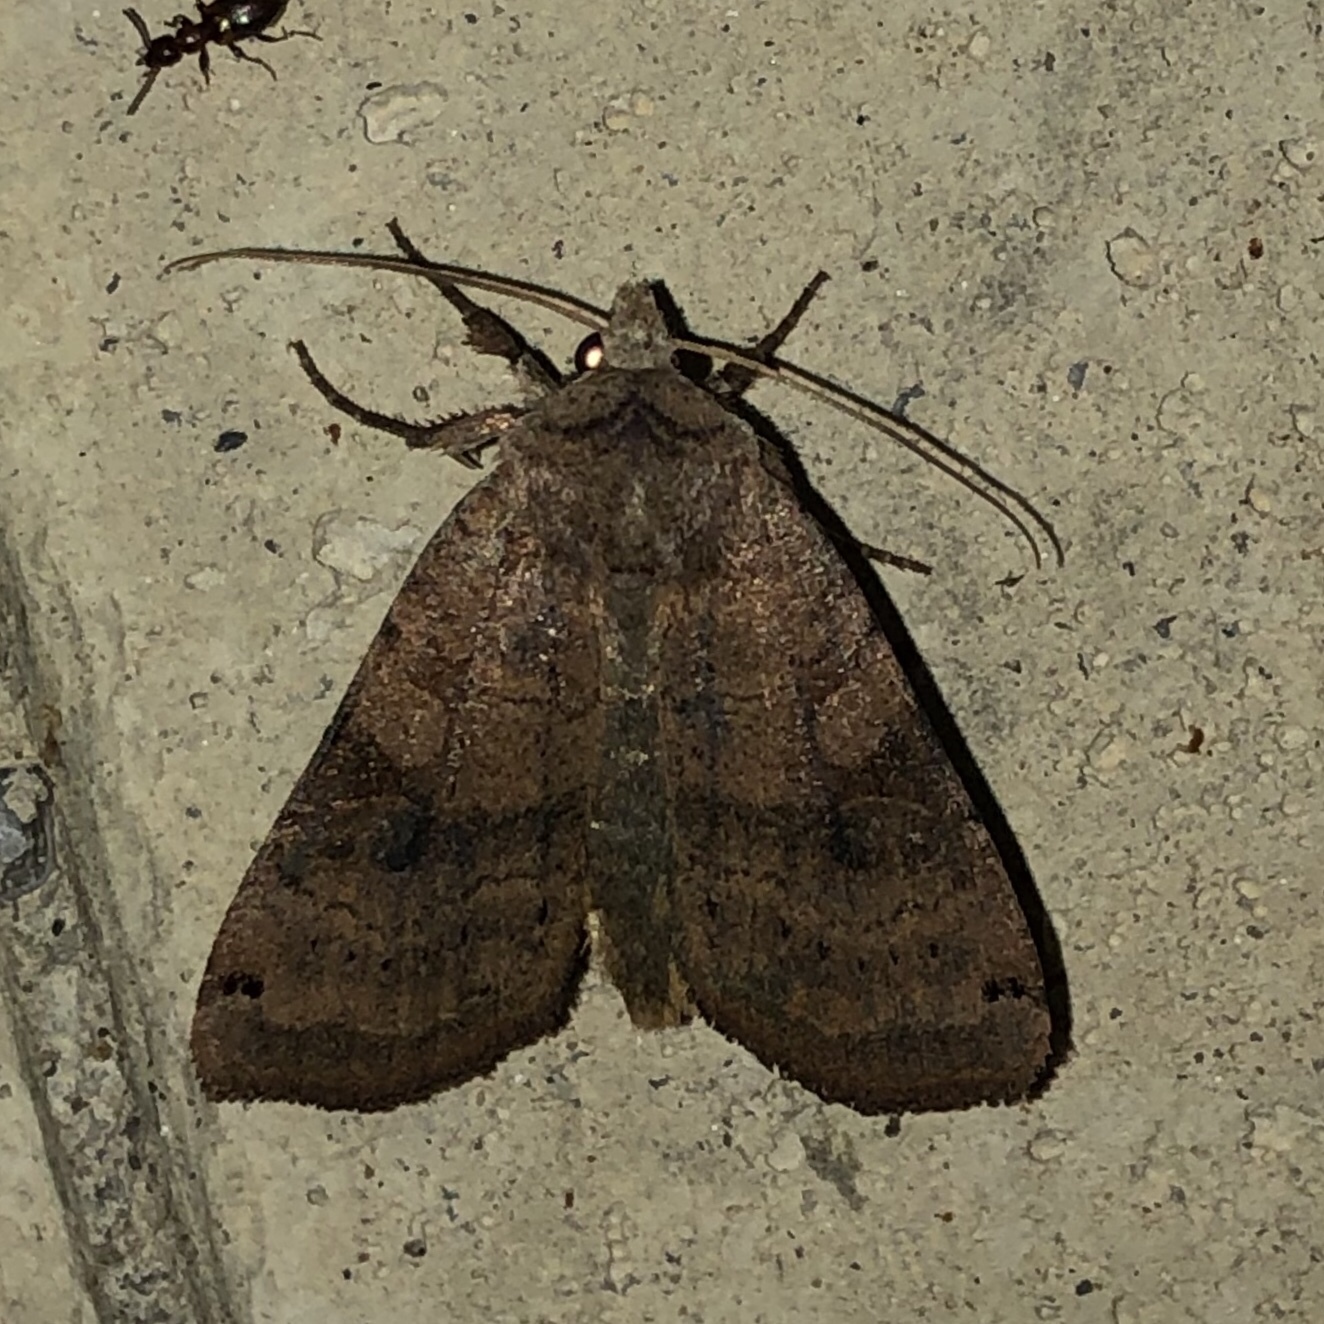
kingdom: Animalia
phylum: Arthropoda
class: Insecta
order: Lepidoptera
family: Noctuidae
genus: Xestia
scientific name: Xestia smithii
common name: Smith's dart
